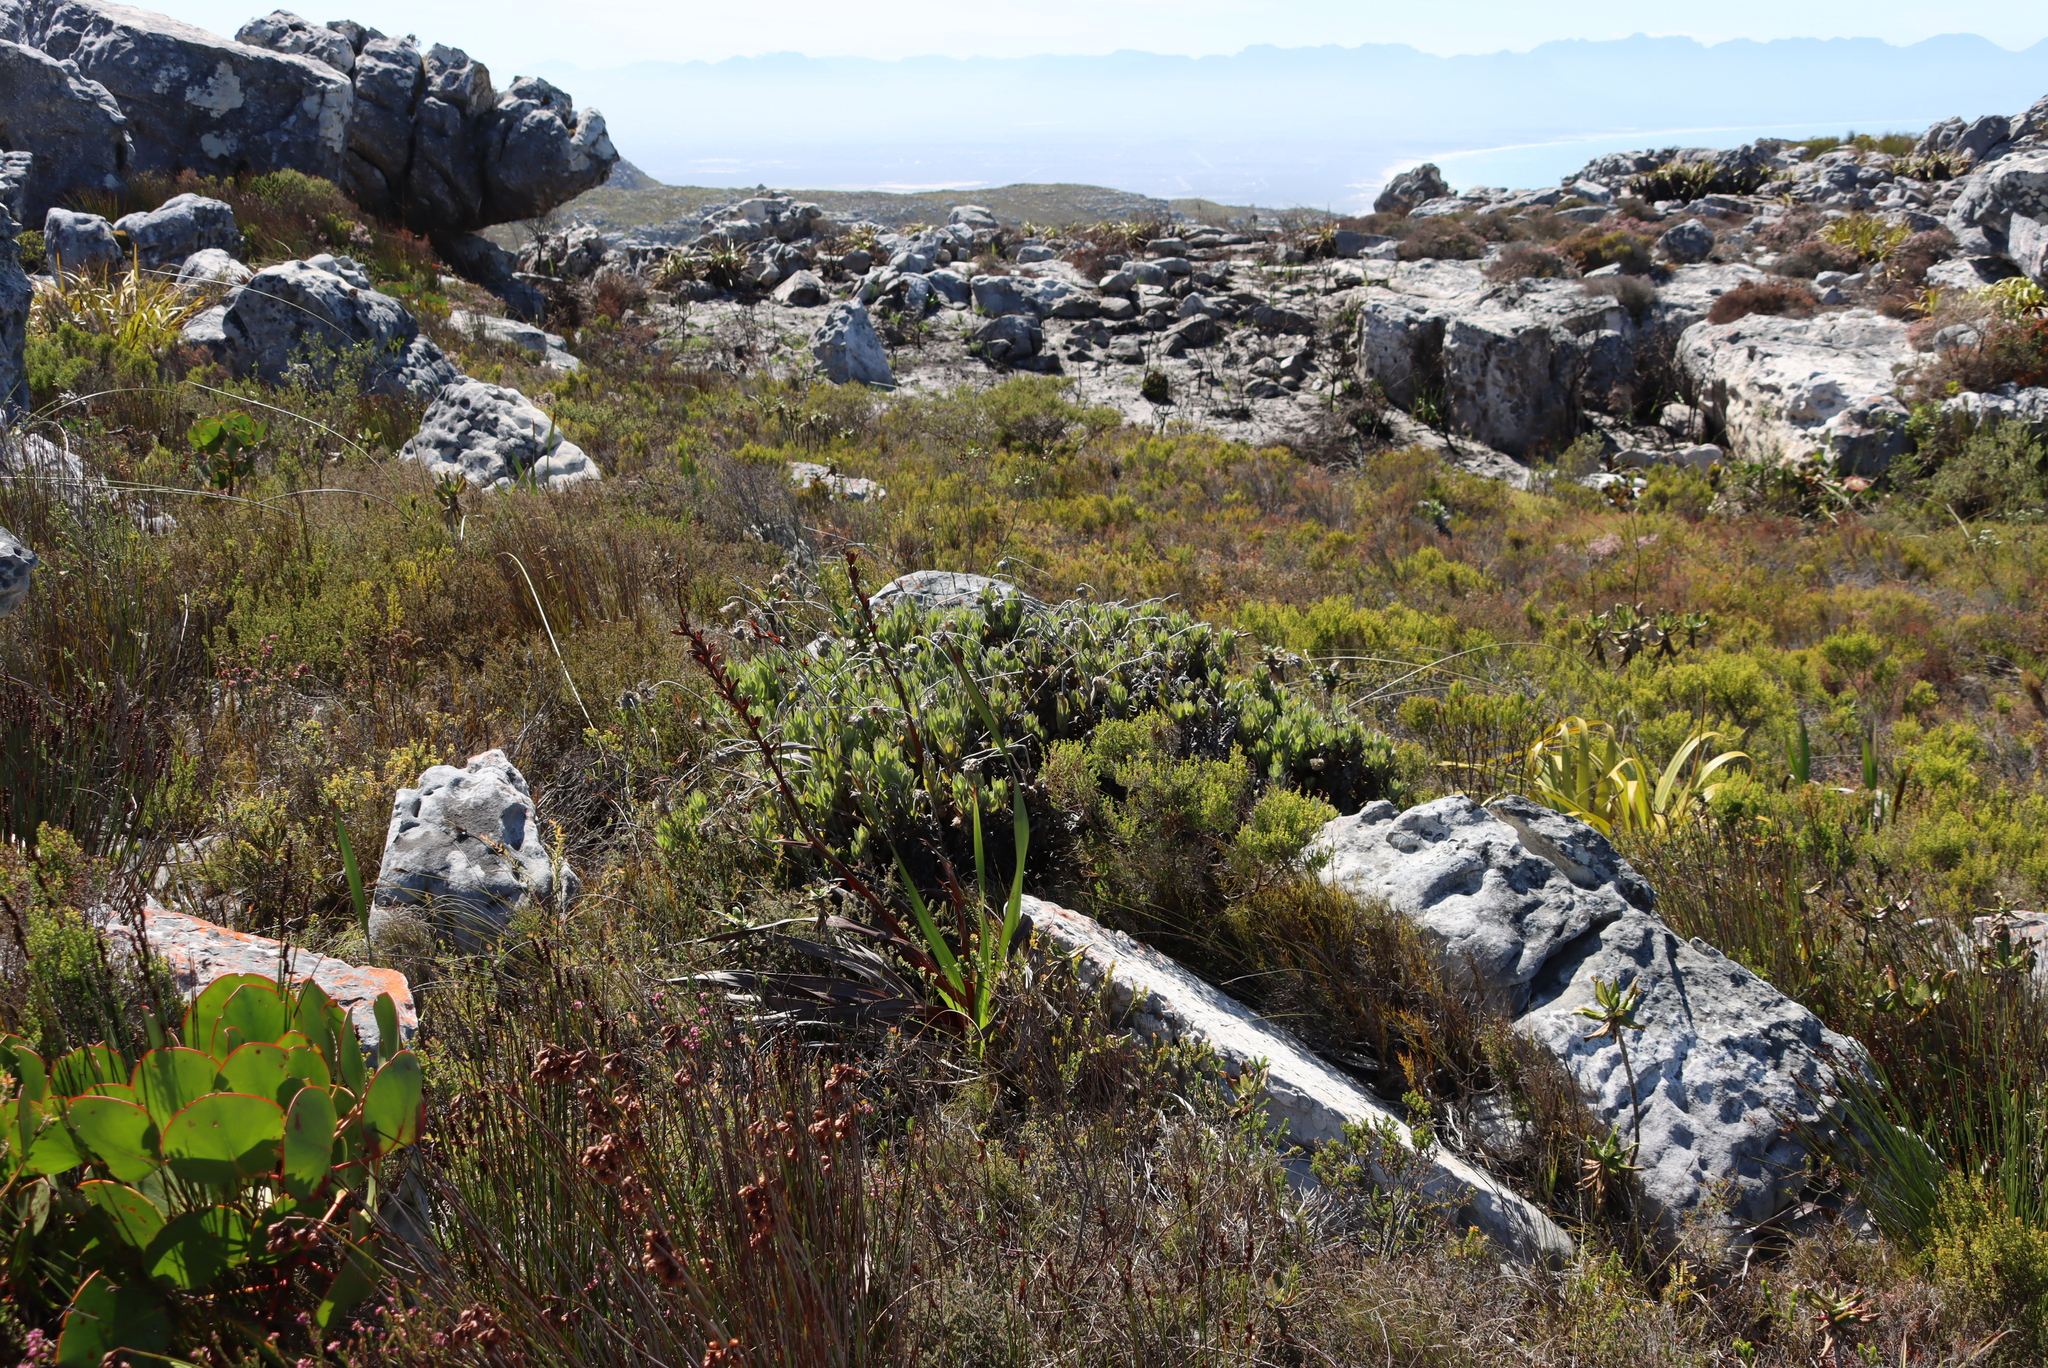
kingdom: Plantae
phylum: Tracheophyta
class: Magnoliopsida
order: Asterales
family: Asteraceae
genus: Stoebe
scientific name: Stoebe rosea
